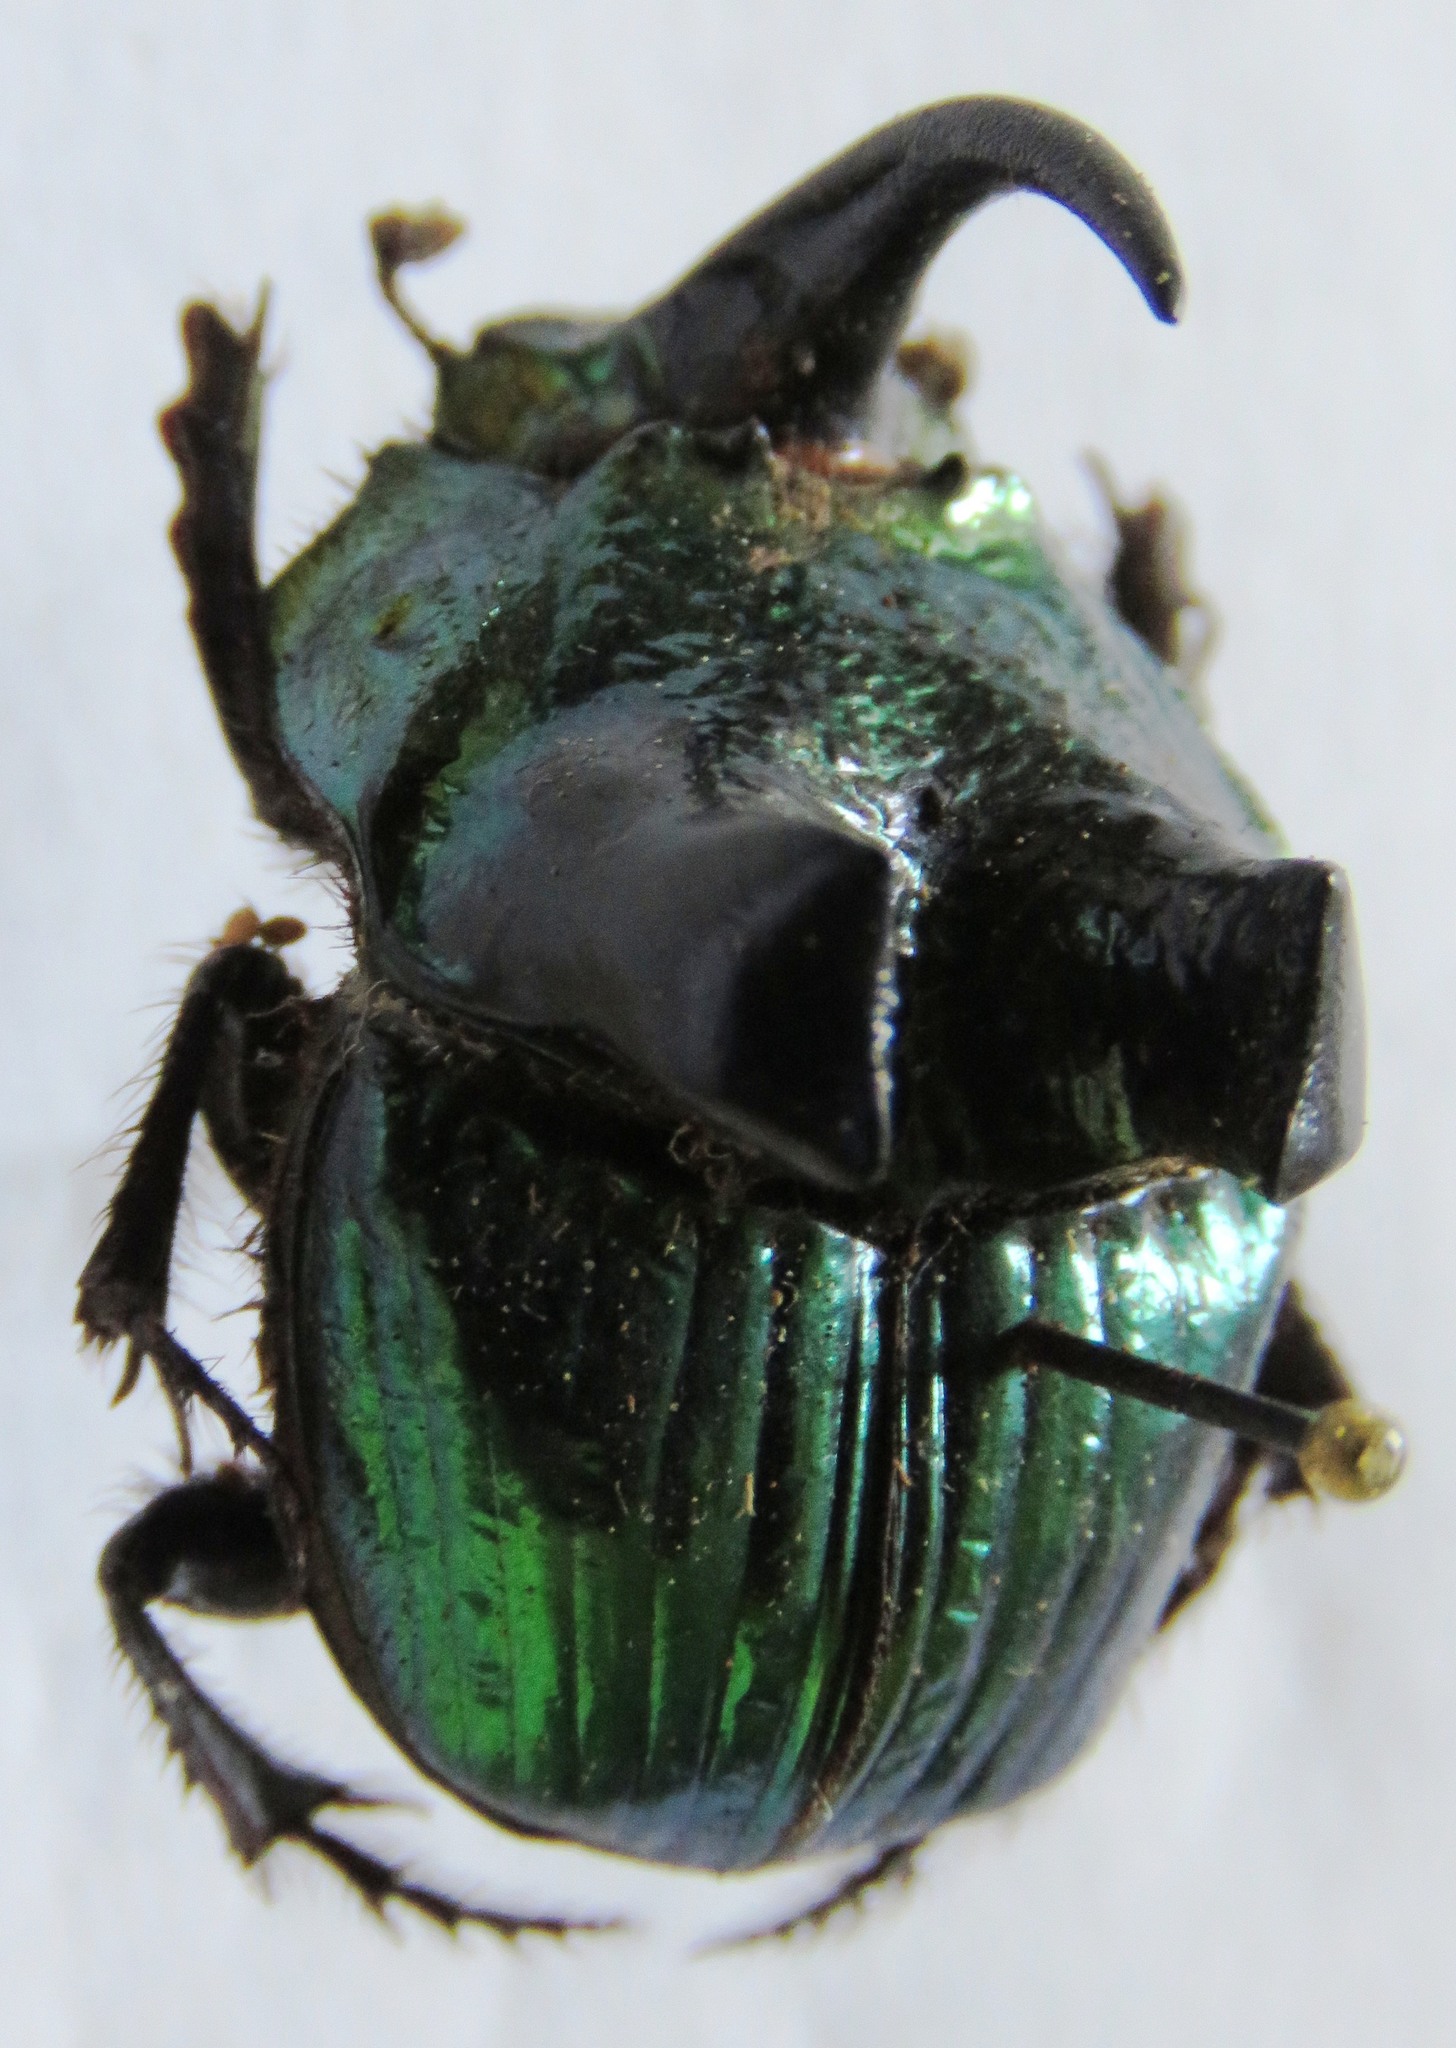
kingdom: Animalia
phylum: Arthropoda
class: Insecta
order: Coleoptera
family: Scarabaeidae
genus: Phanaeus
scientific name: Phanaeus excelsus
